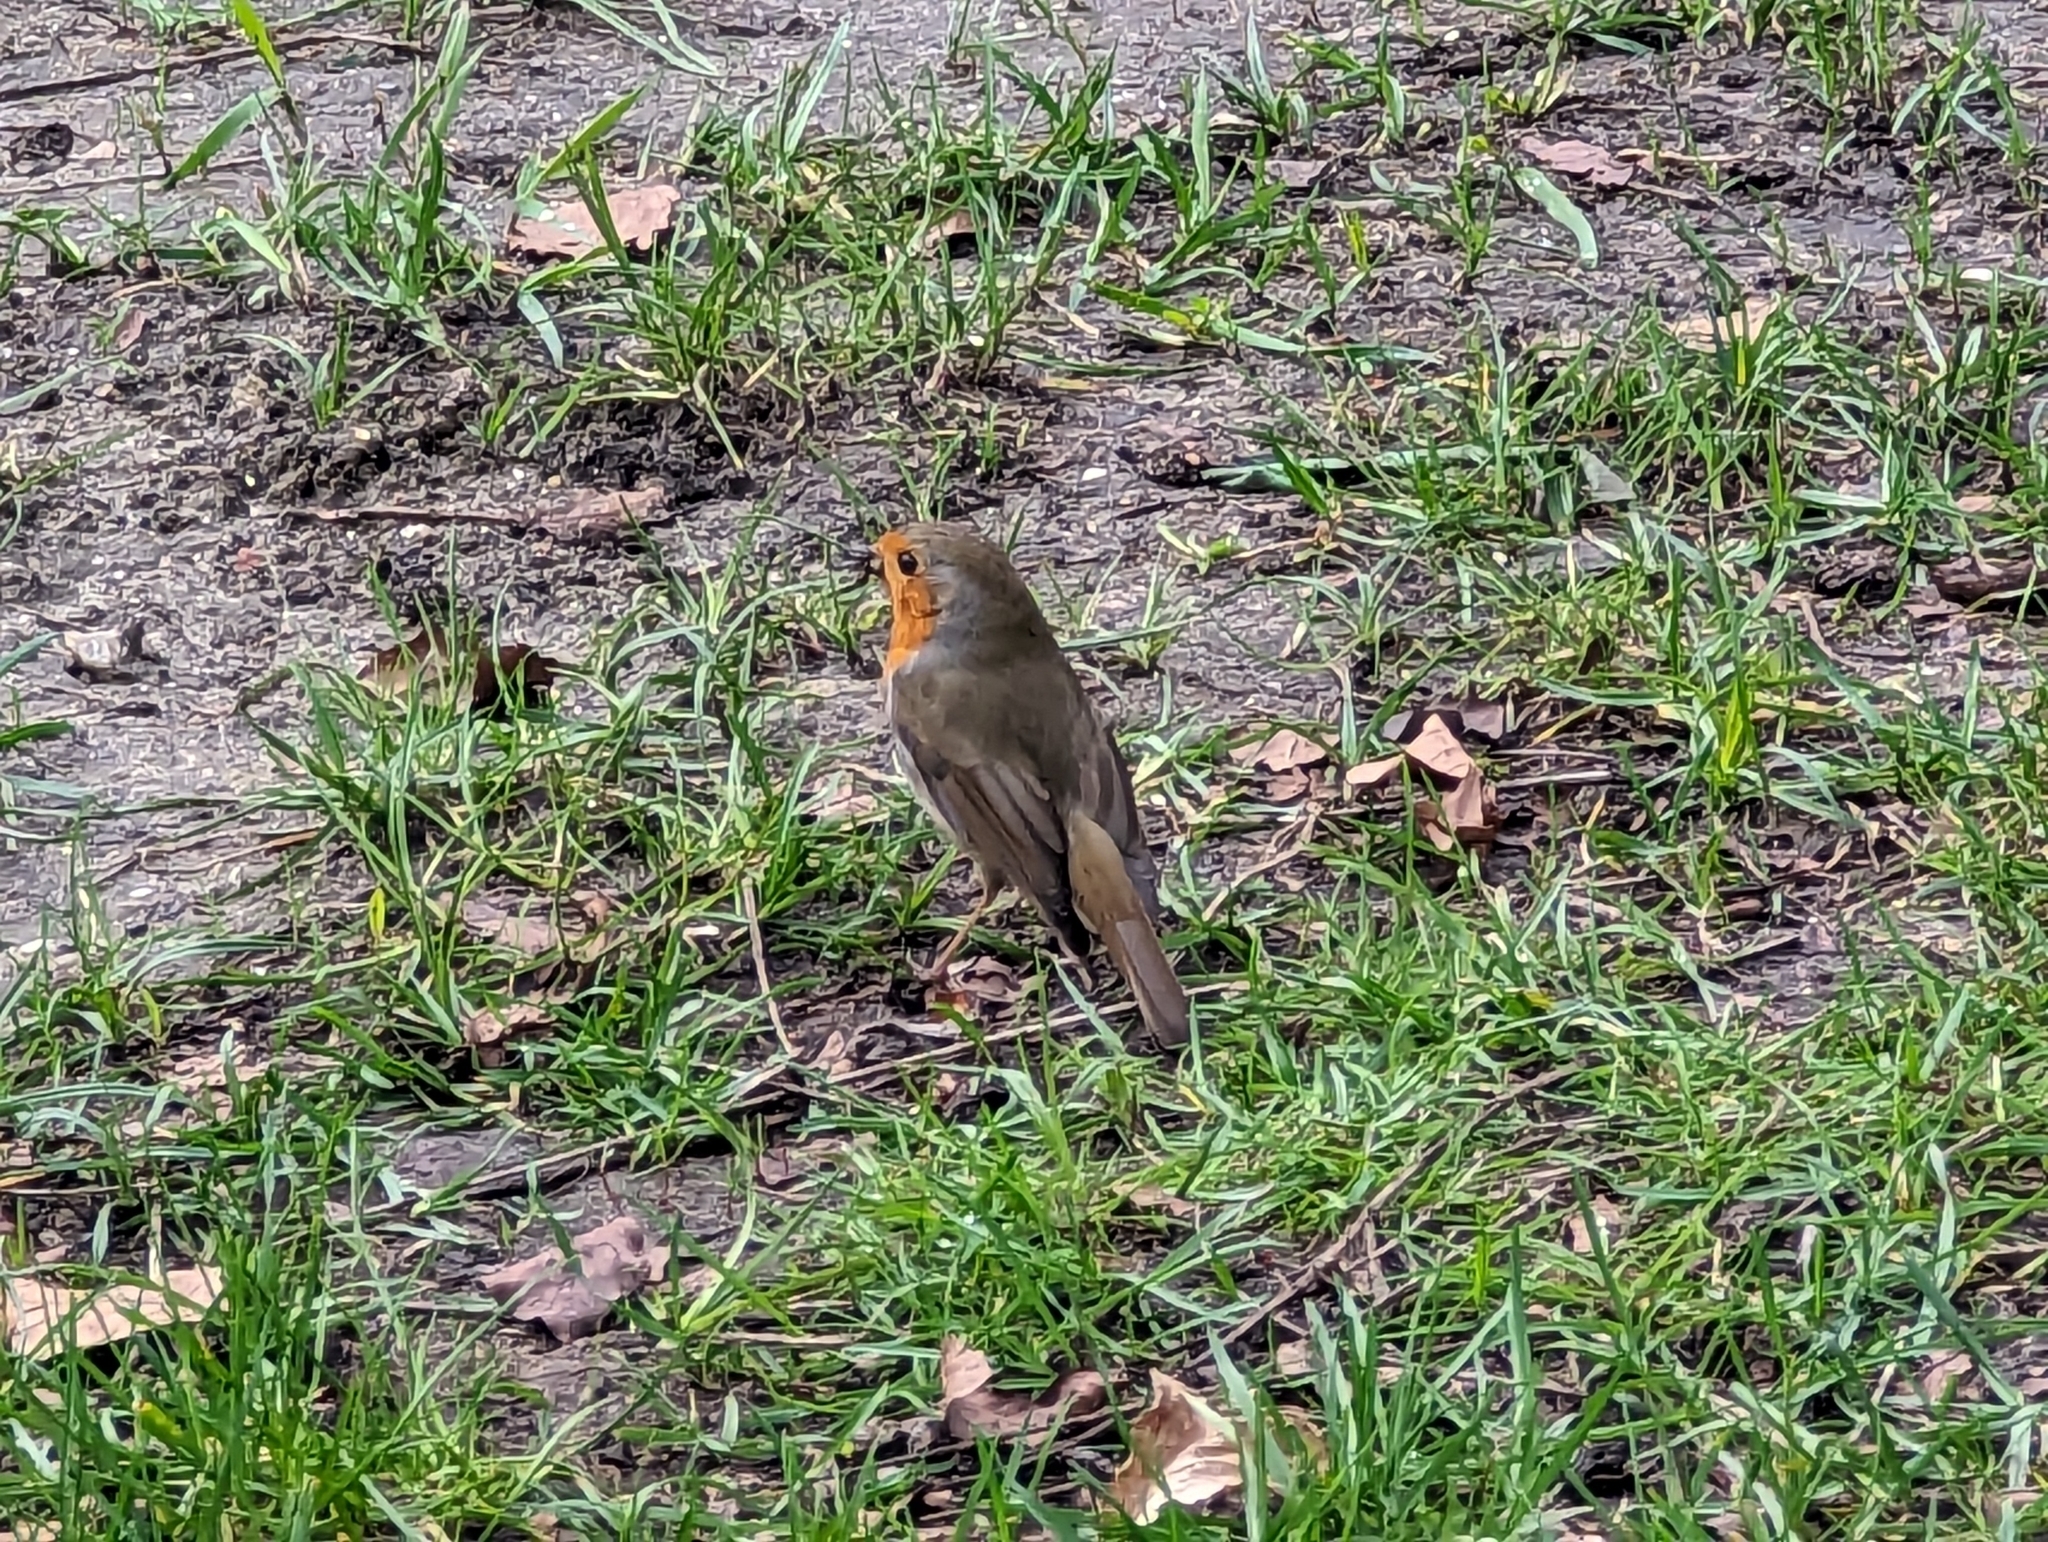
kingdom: Animalia
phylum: Chordata
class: Aves
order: Passeriformes
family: Muscicapidae
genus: Erithacus
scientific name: Erithacus rubecula
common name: European robin
